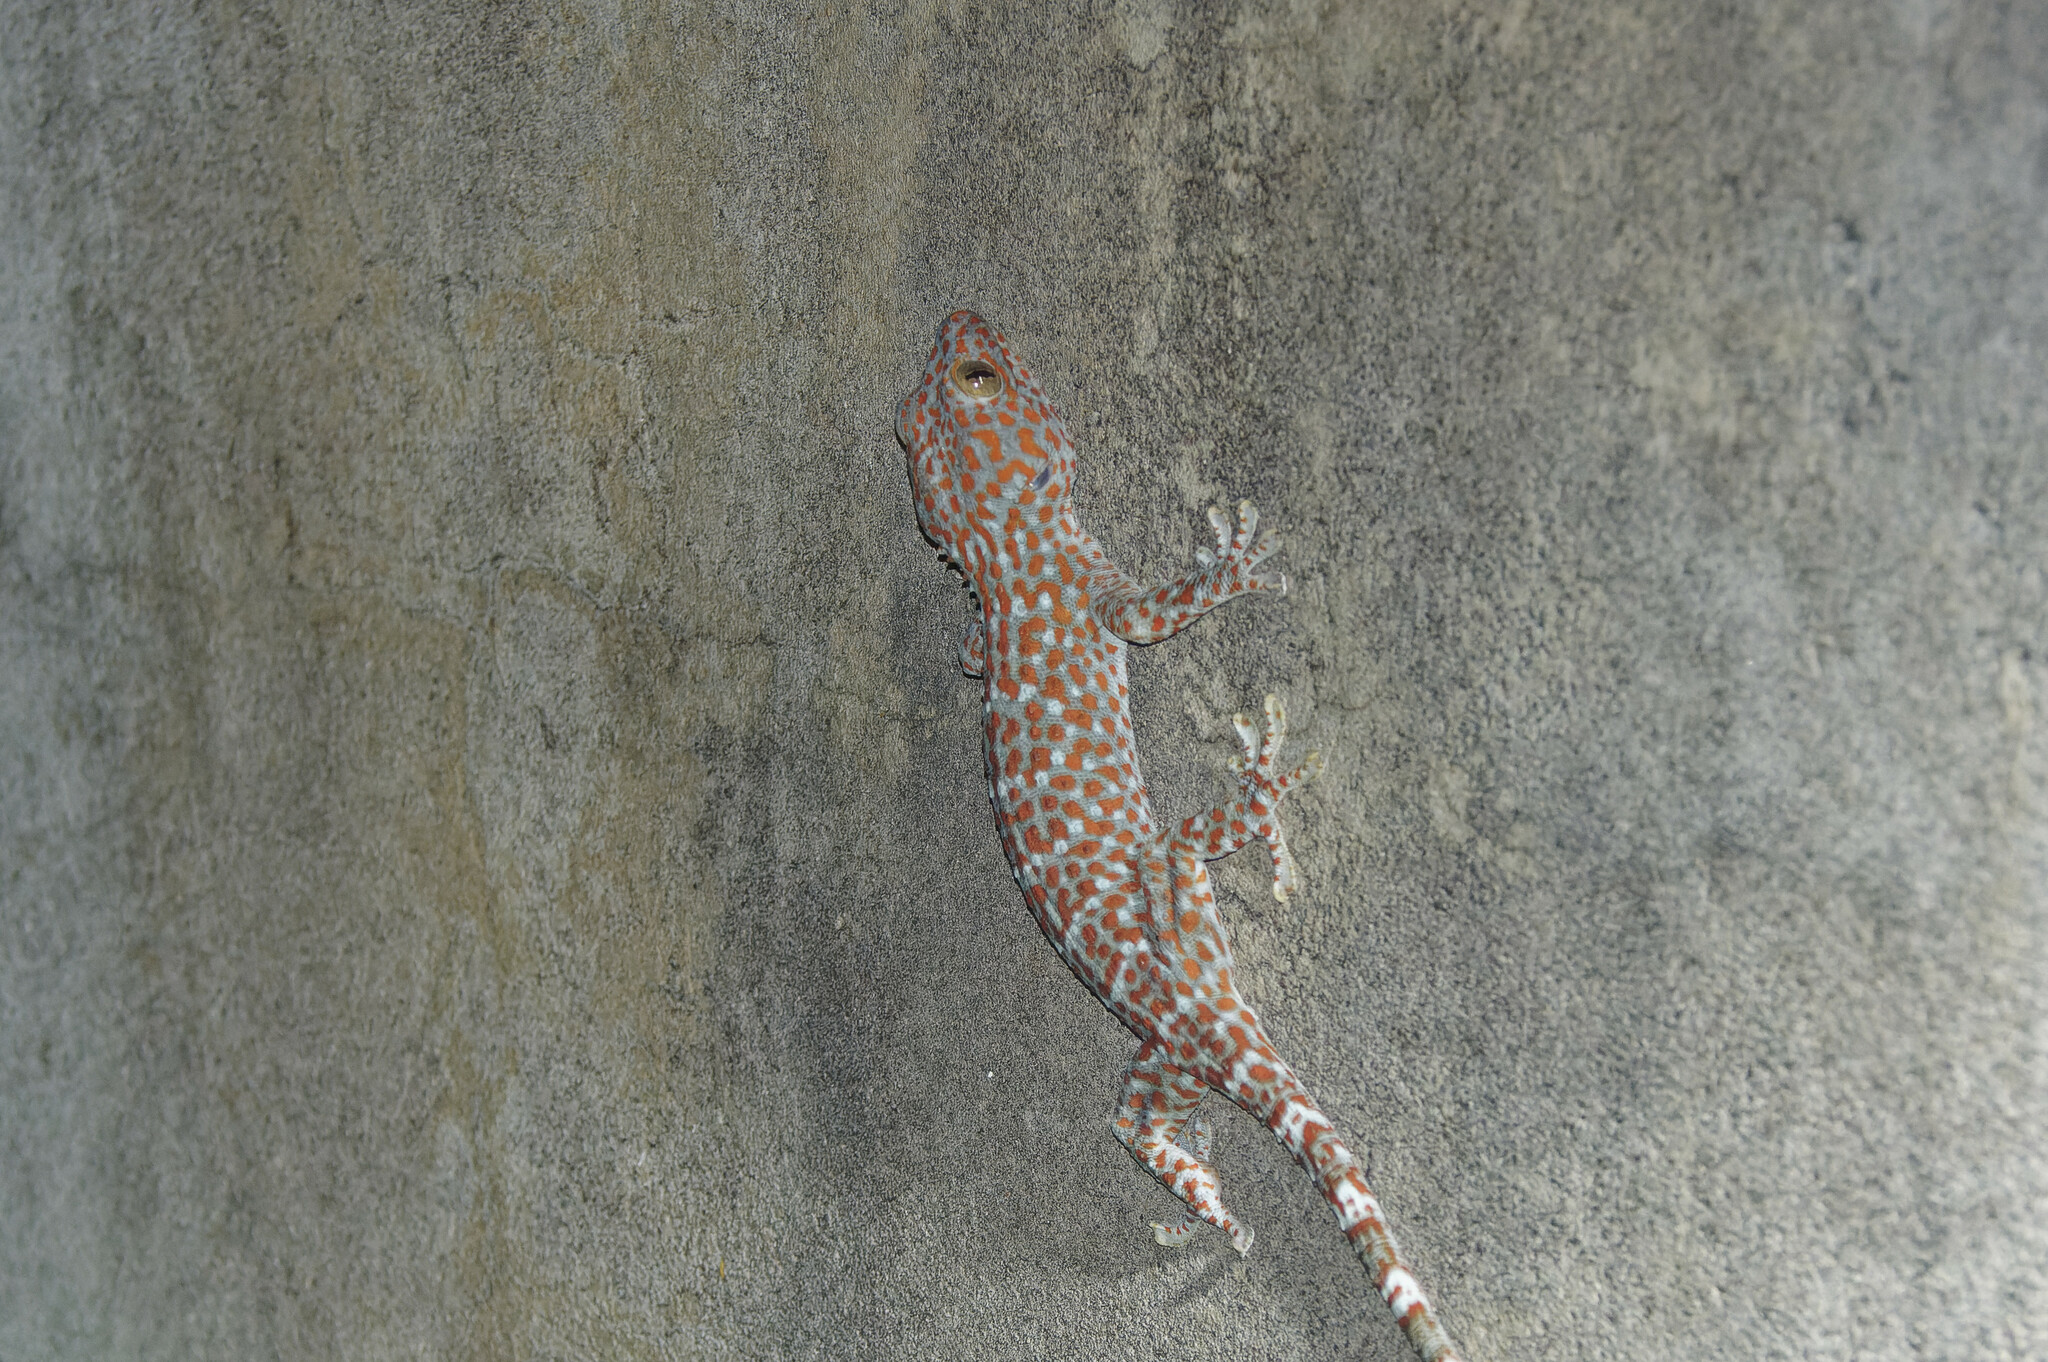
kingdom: Animalia
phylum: Chordata
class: Squamata
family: Gekkonidae
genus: Gekko
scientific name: Gekko gecko
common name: Tokay gecko
